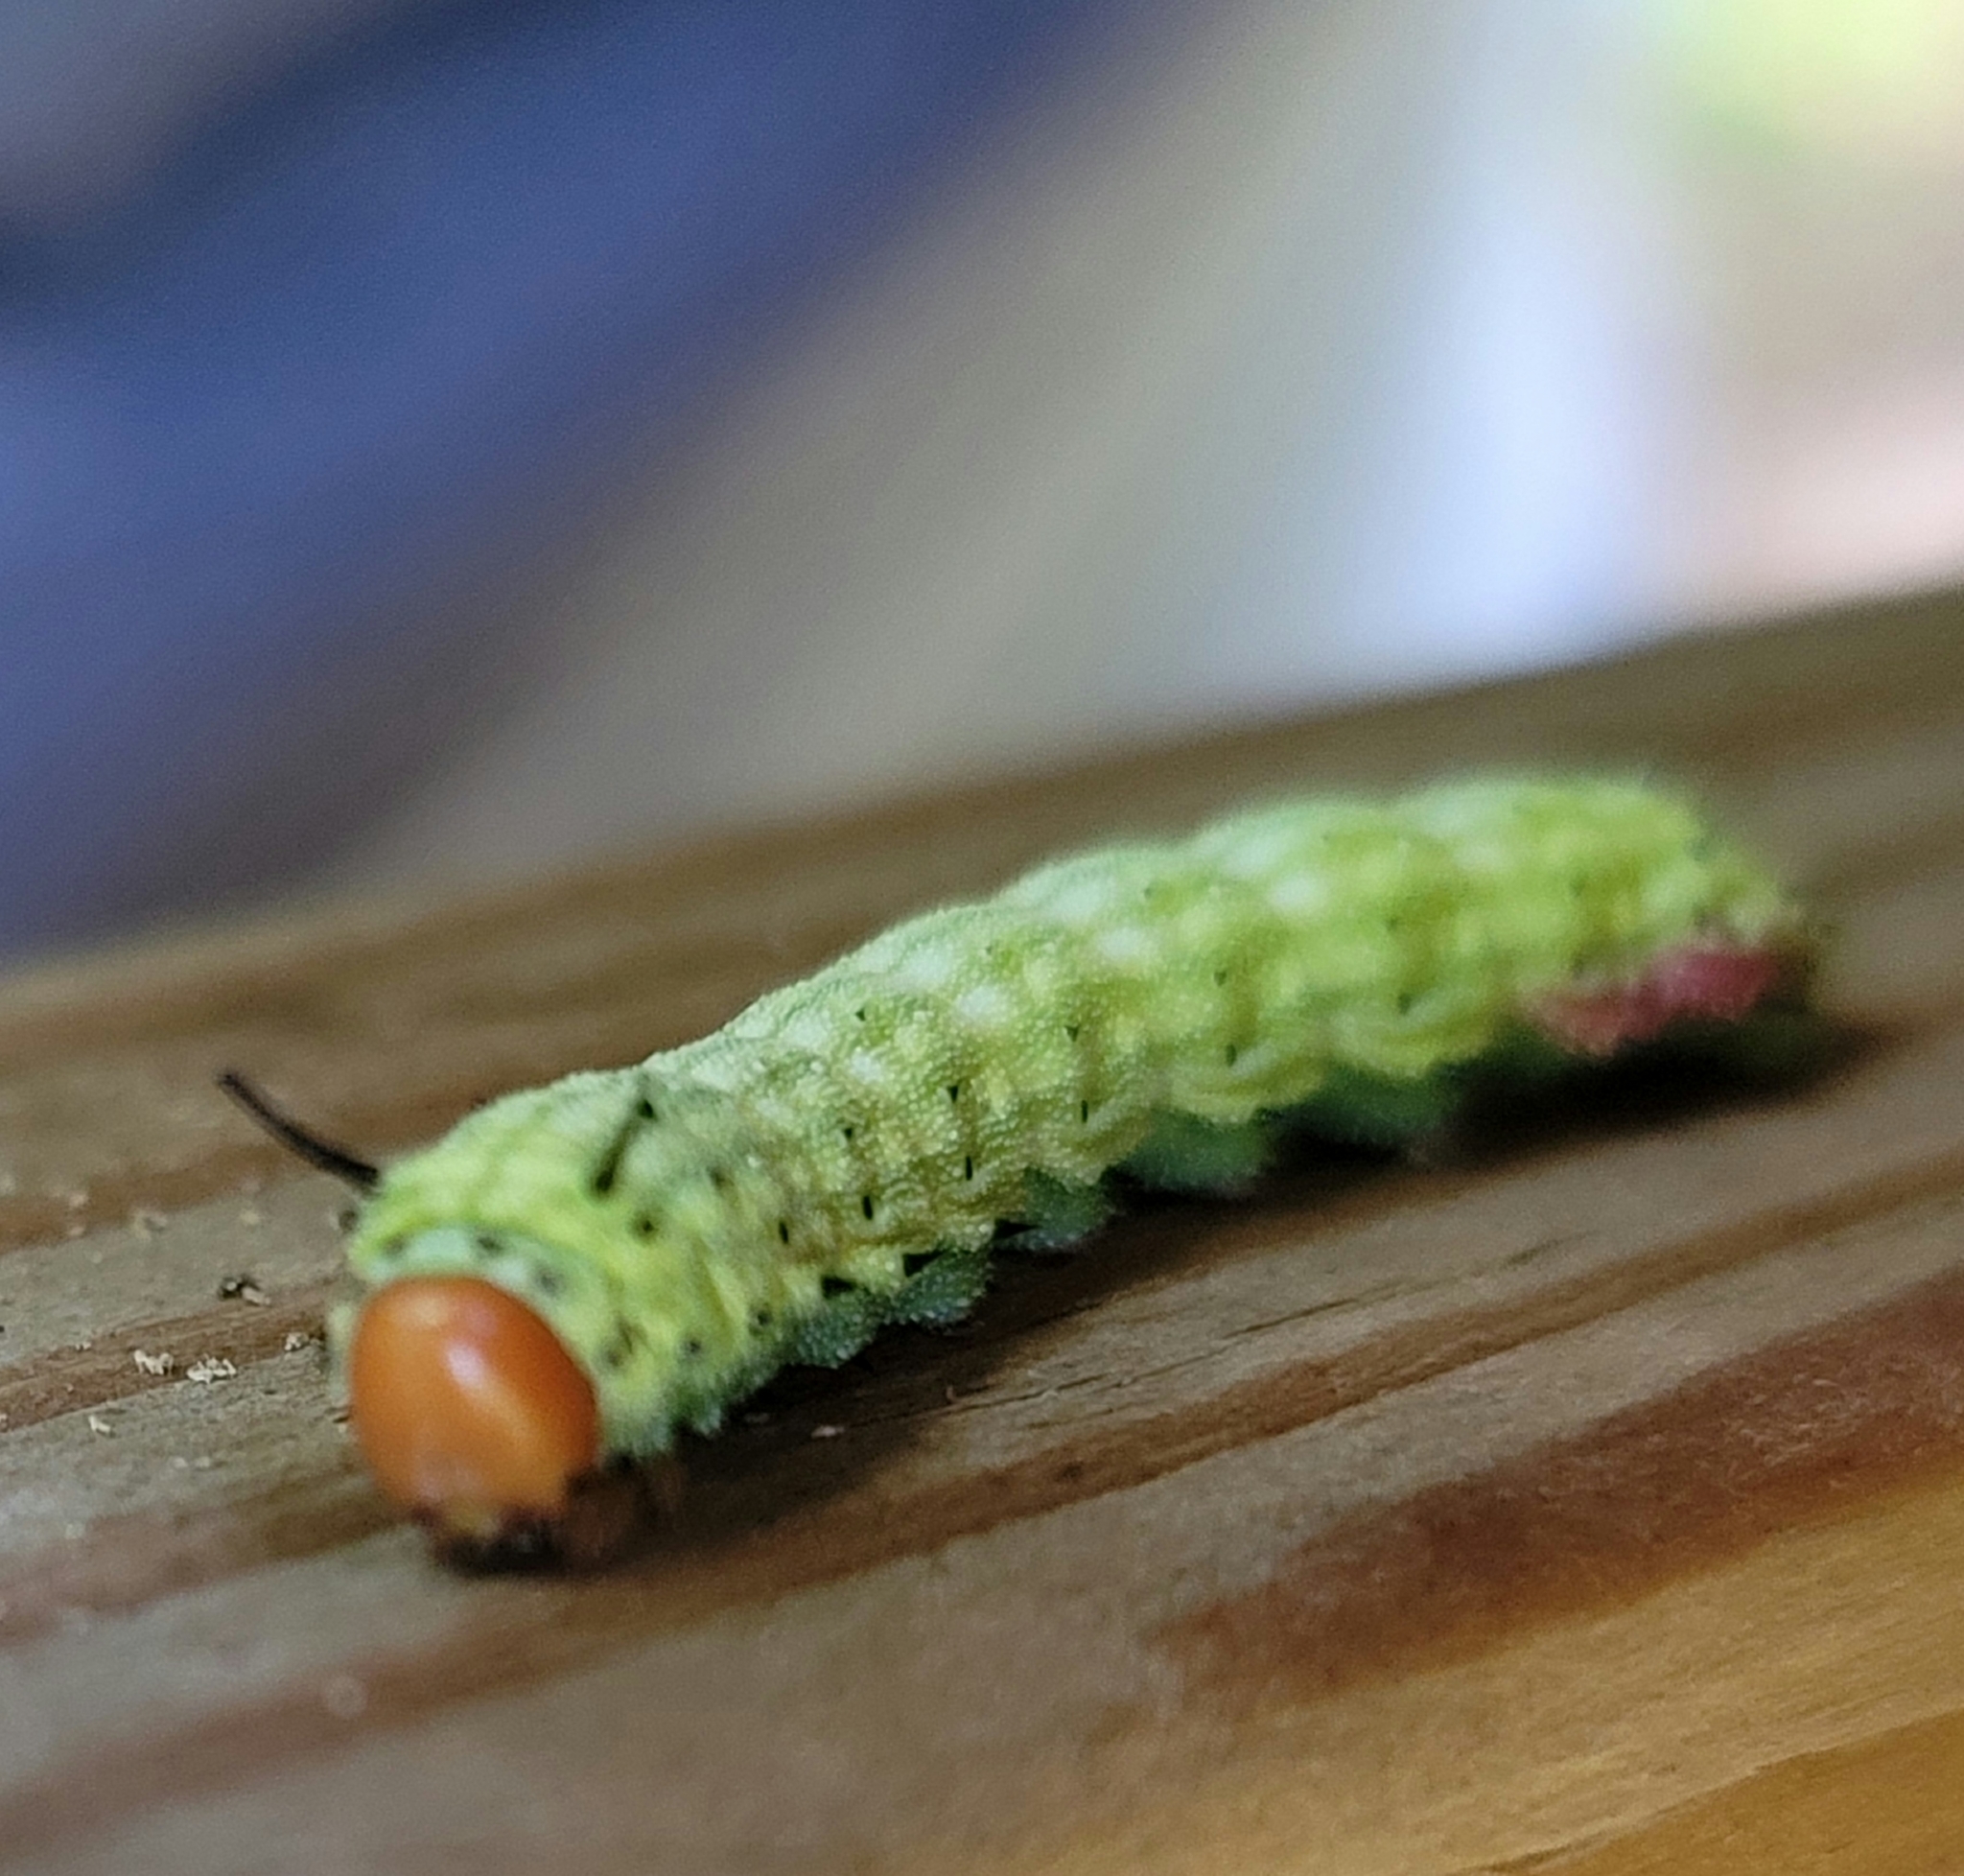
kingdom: Animalia
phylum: Arthropoda
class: Insecta
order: Lepidoptera
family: Saturniidae
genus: Dryocampa
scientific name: Dryocampa rubicunda
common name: Rosy maple moth
